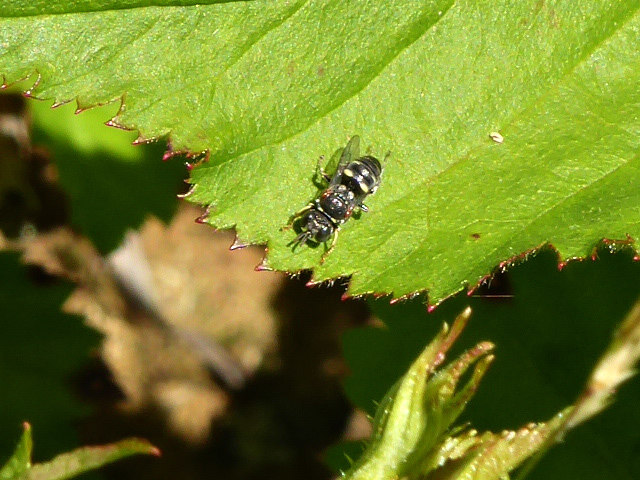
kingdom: Animalia
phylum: Arthropoda
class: Insecta
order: Hymenoptera
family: Crabronidae
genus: Oxybelus
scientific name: Oxybelus
